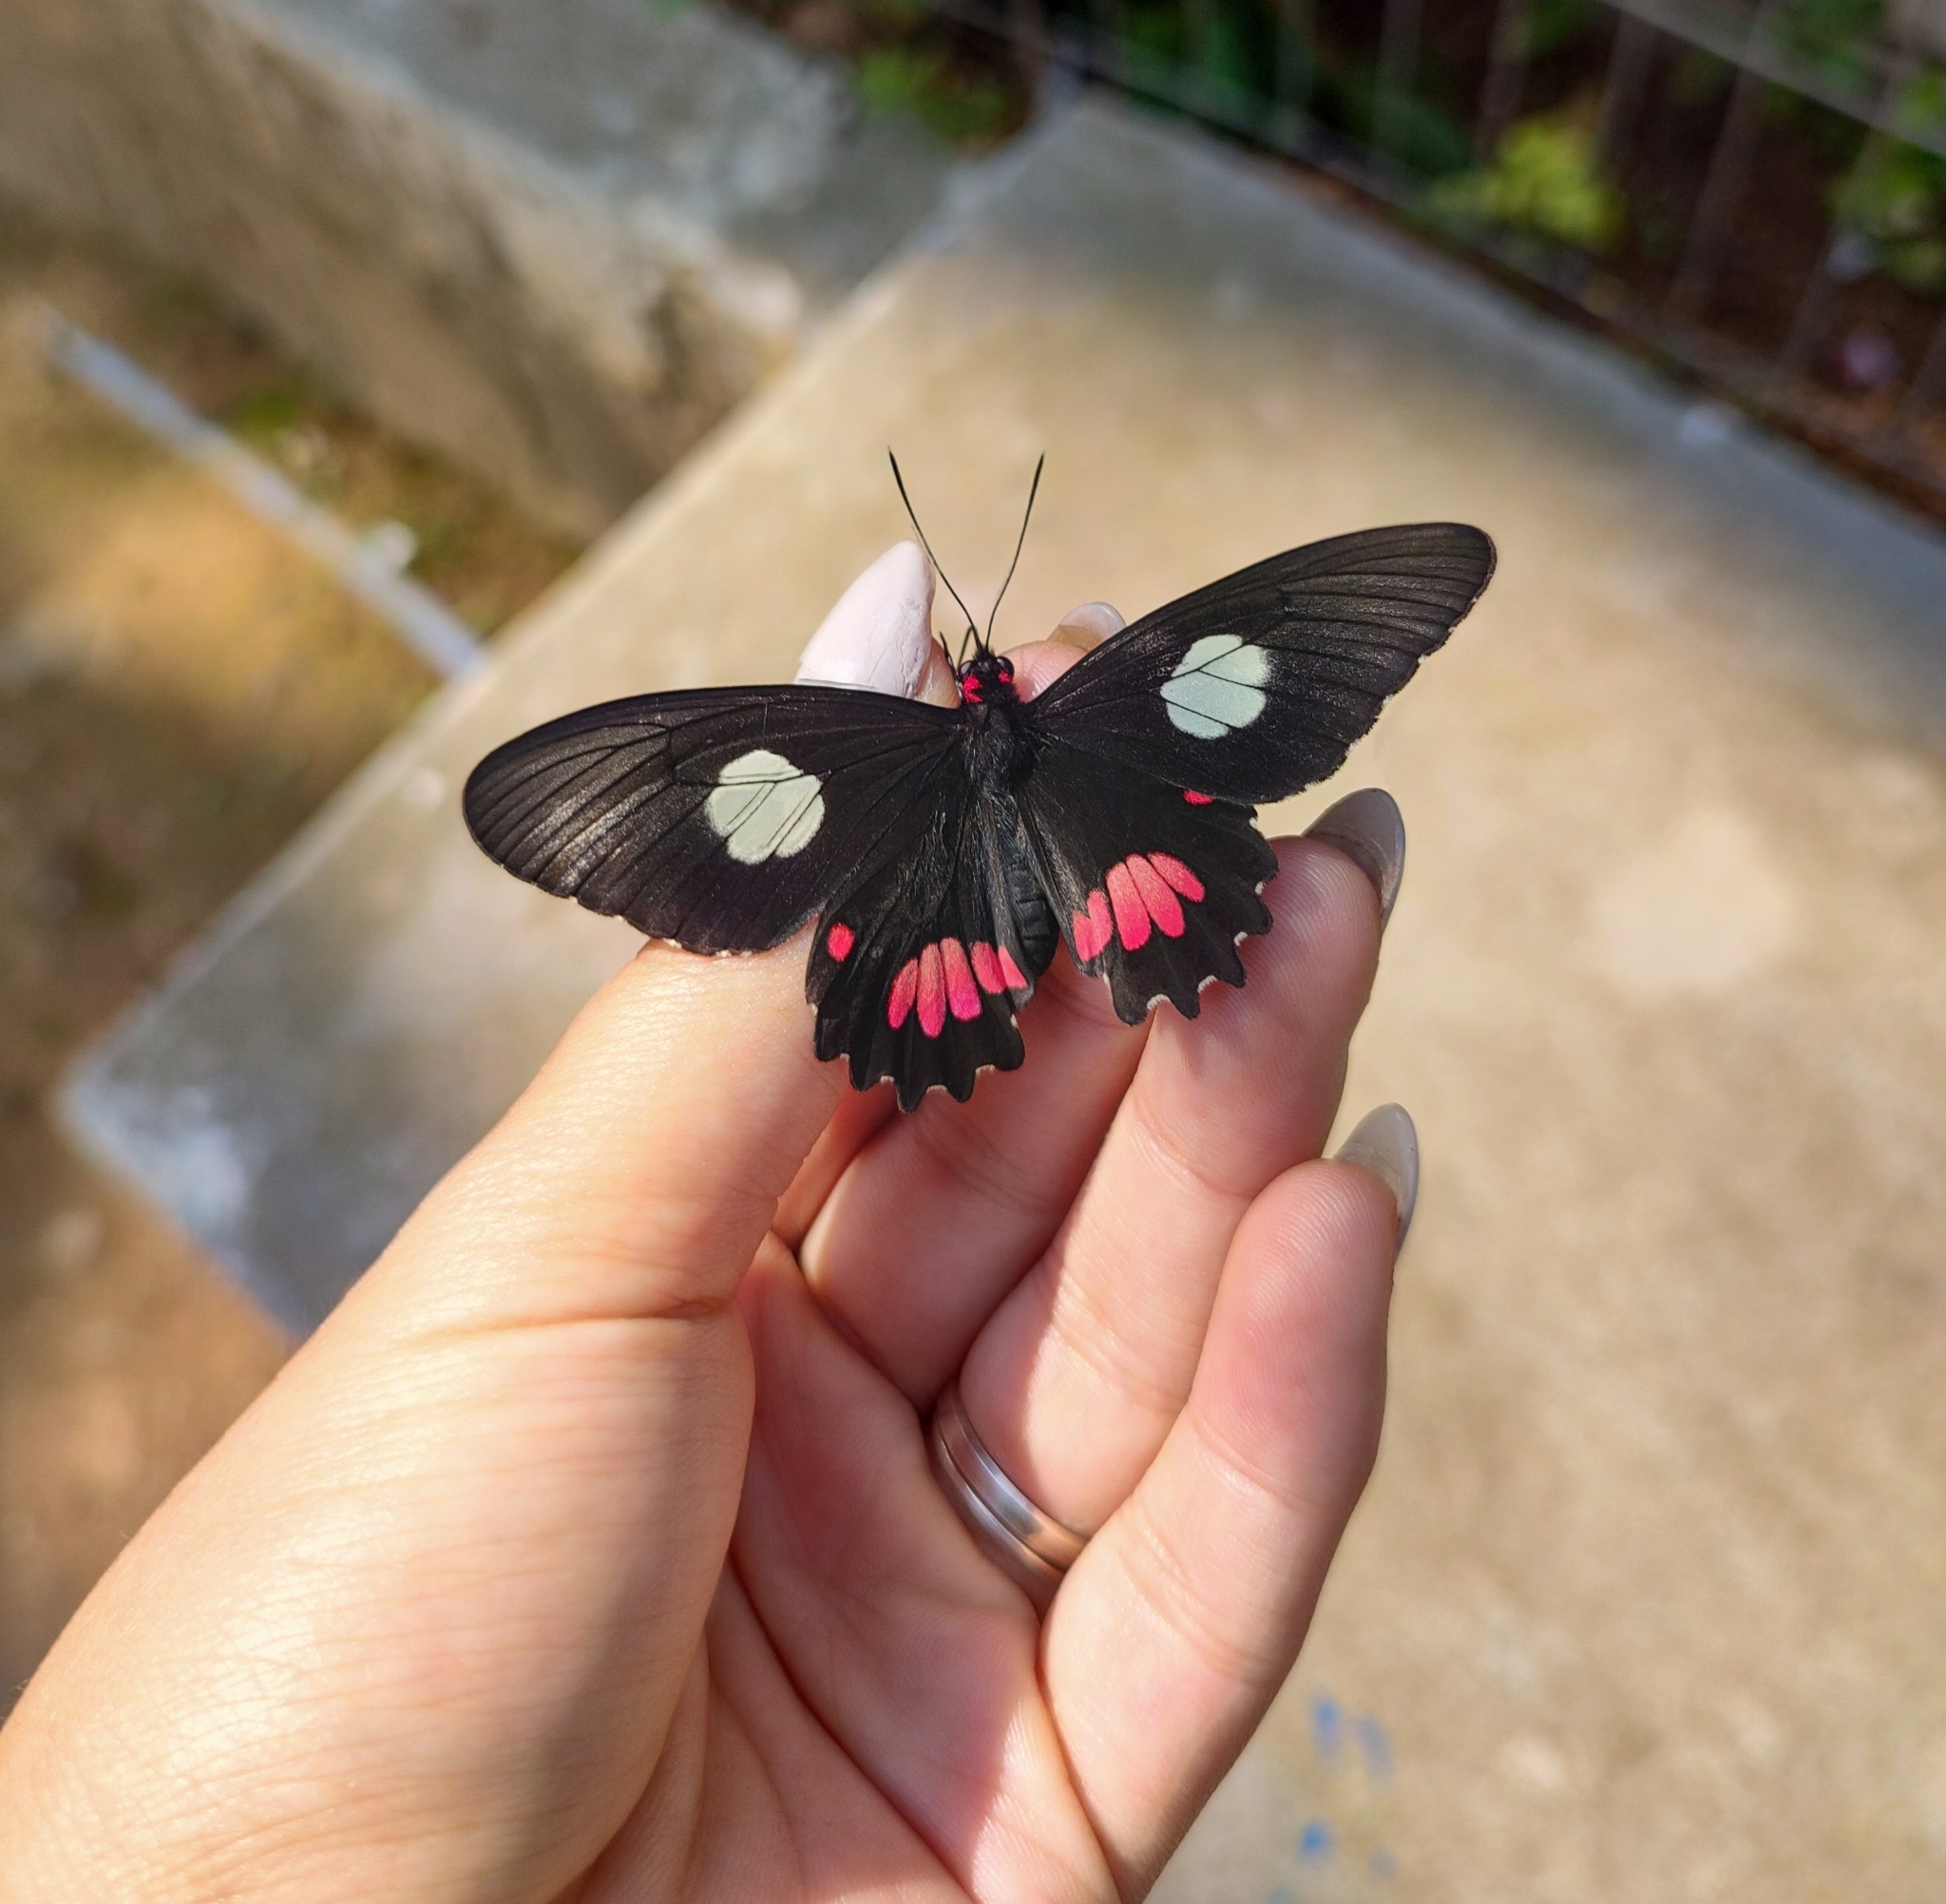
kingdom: Animalia
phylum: Arthropoda
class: Insecta
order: Lepidoptera
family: Papilionidae
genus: Parides
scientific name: Parides anchises
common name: Cattle heart
